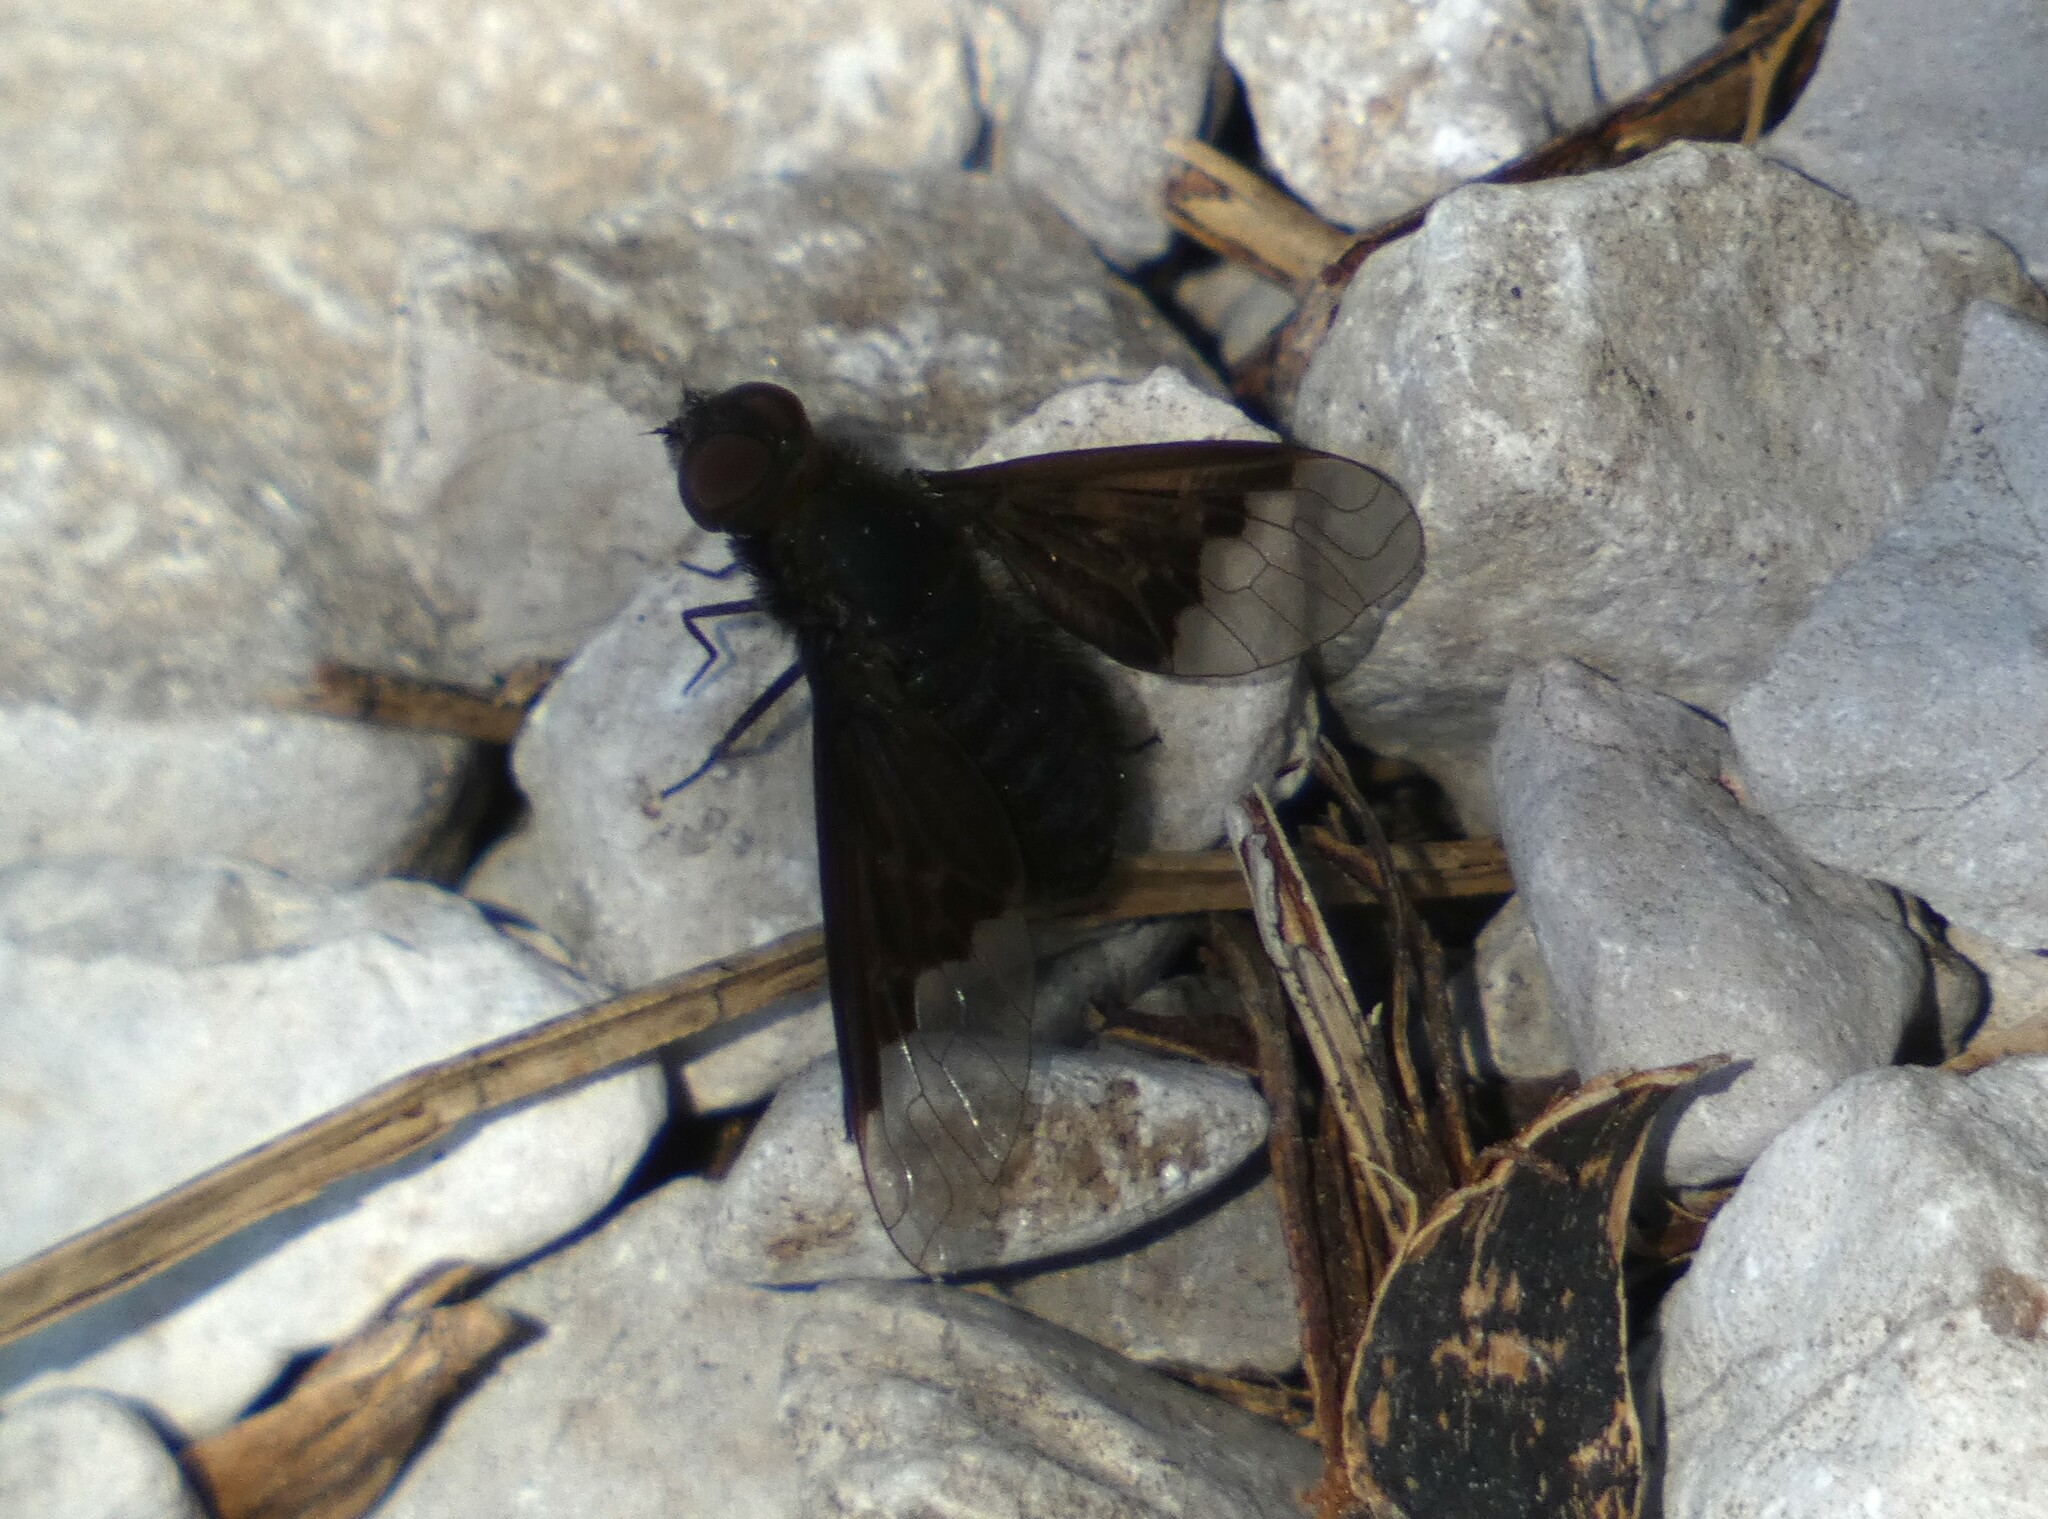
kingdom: Animalia
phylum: Arthropoda
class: Insecta
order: Diptera
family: Bombyliidae
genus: Hemipenthes
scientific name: Hemipenthes morio
